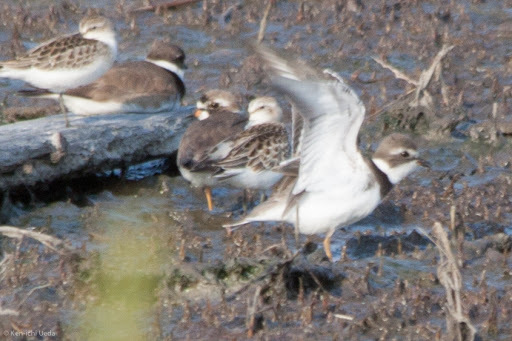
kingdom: Animalia
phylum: Chordata
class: Aves
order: Charadriiformes
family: Charadriidae
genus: Charadrius
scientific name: Charadrius semipalmatus
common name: Semipalmated plover
